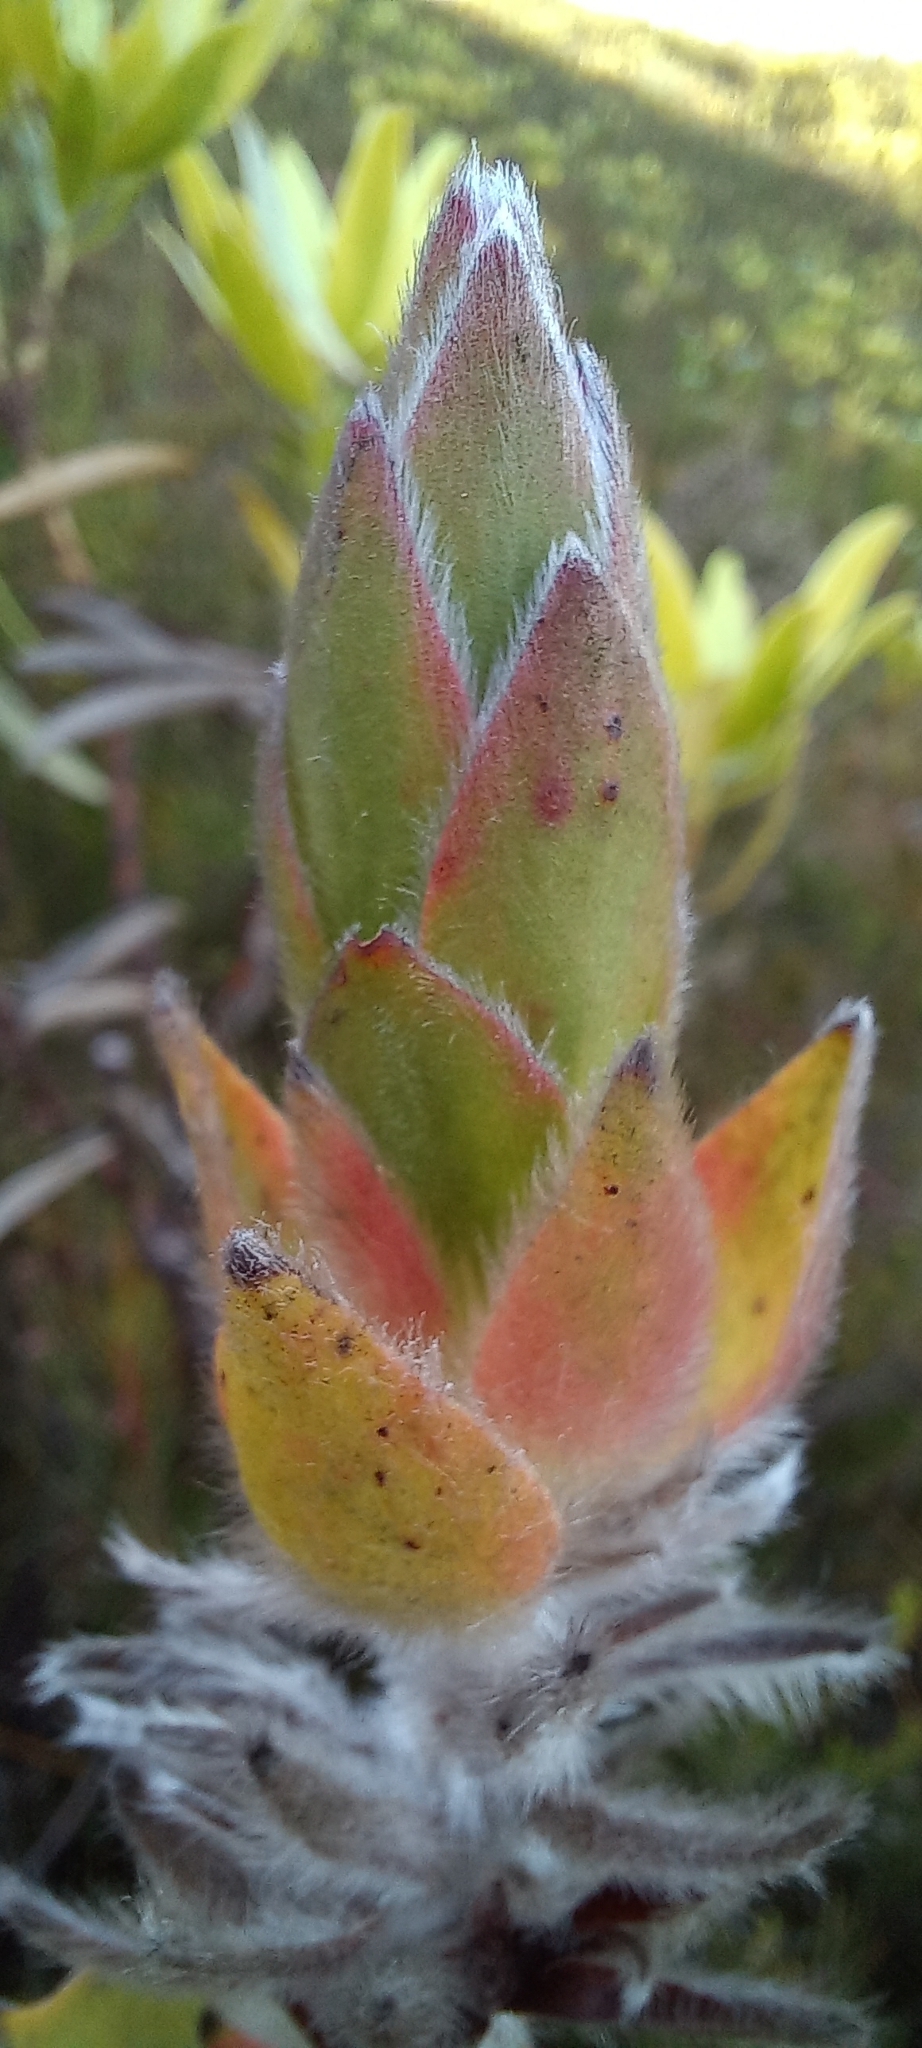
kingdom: Plantae
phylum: Tracheophyta
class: Magnoliopsida
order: Proteales
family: Proteaceae
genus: Mimetes
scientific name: Mimetes capitulatus
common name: Conical pagoda
